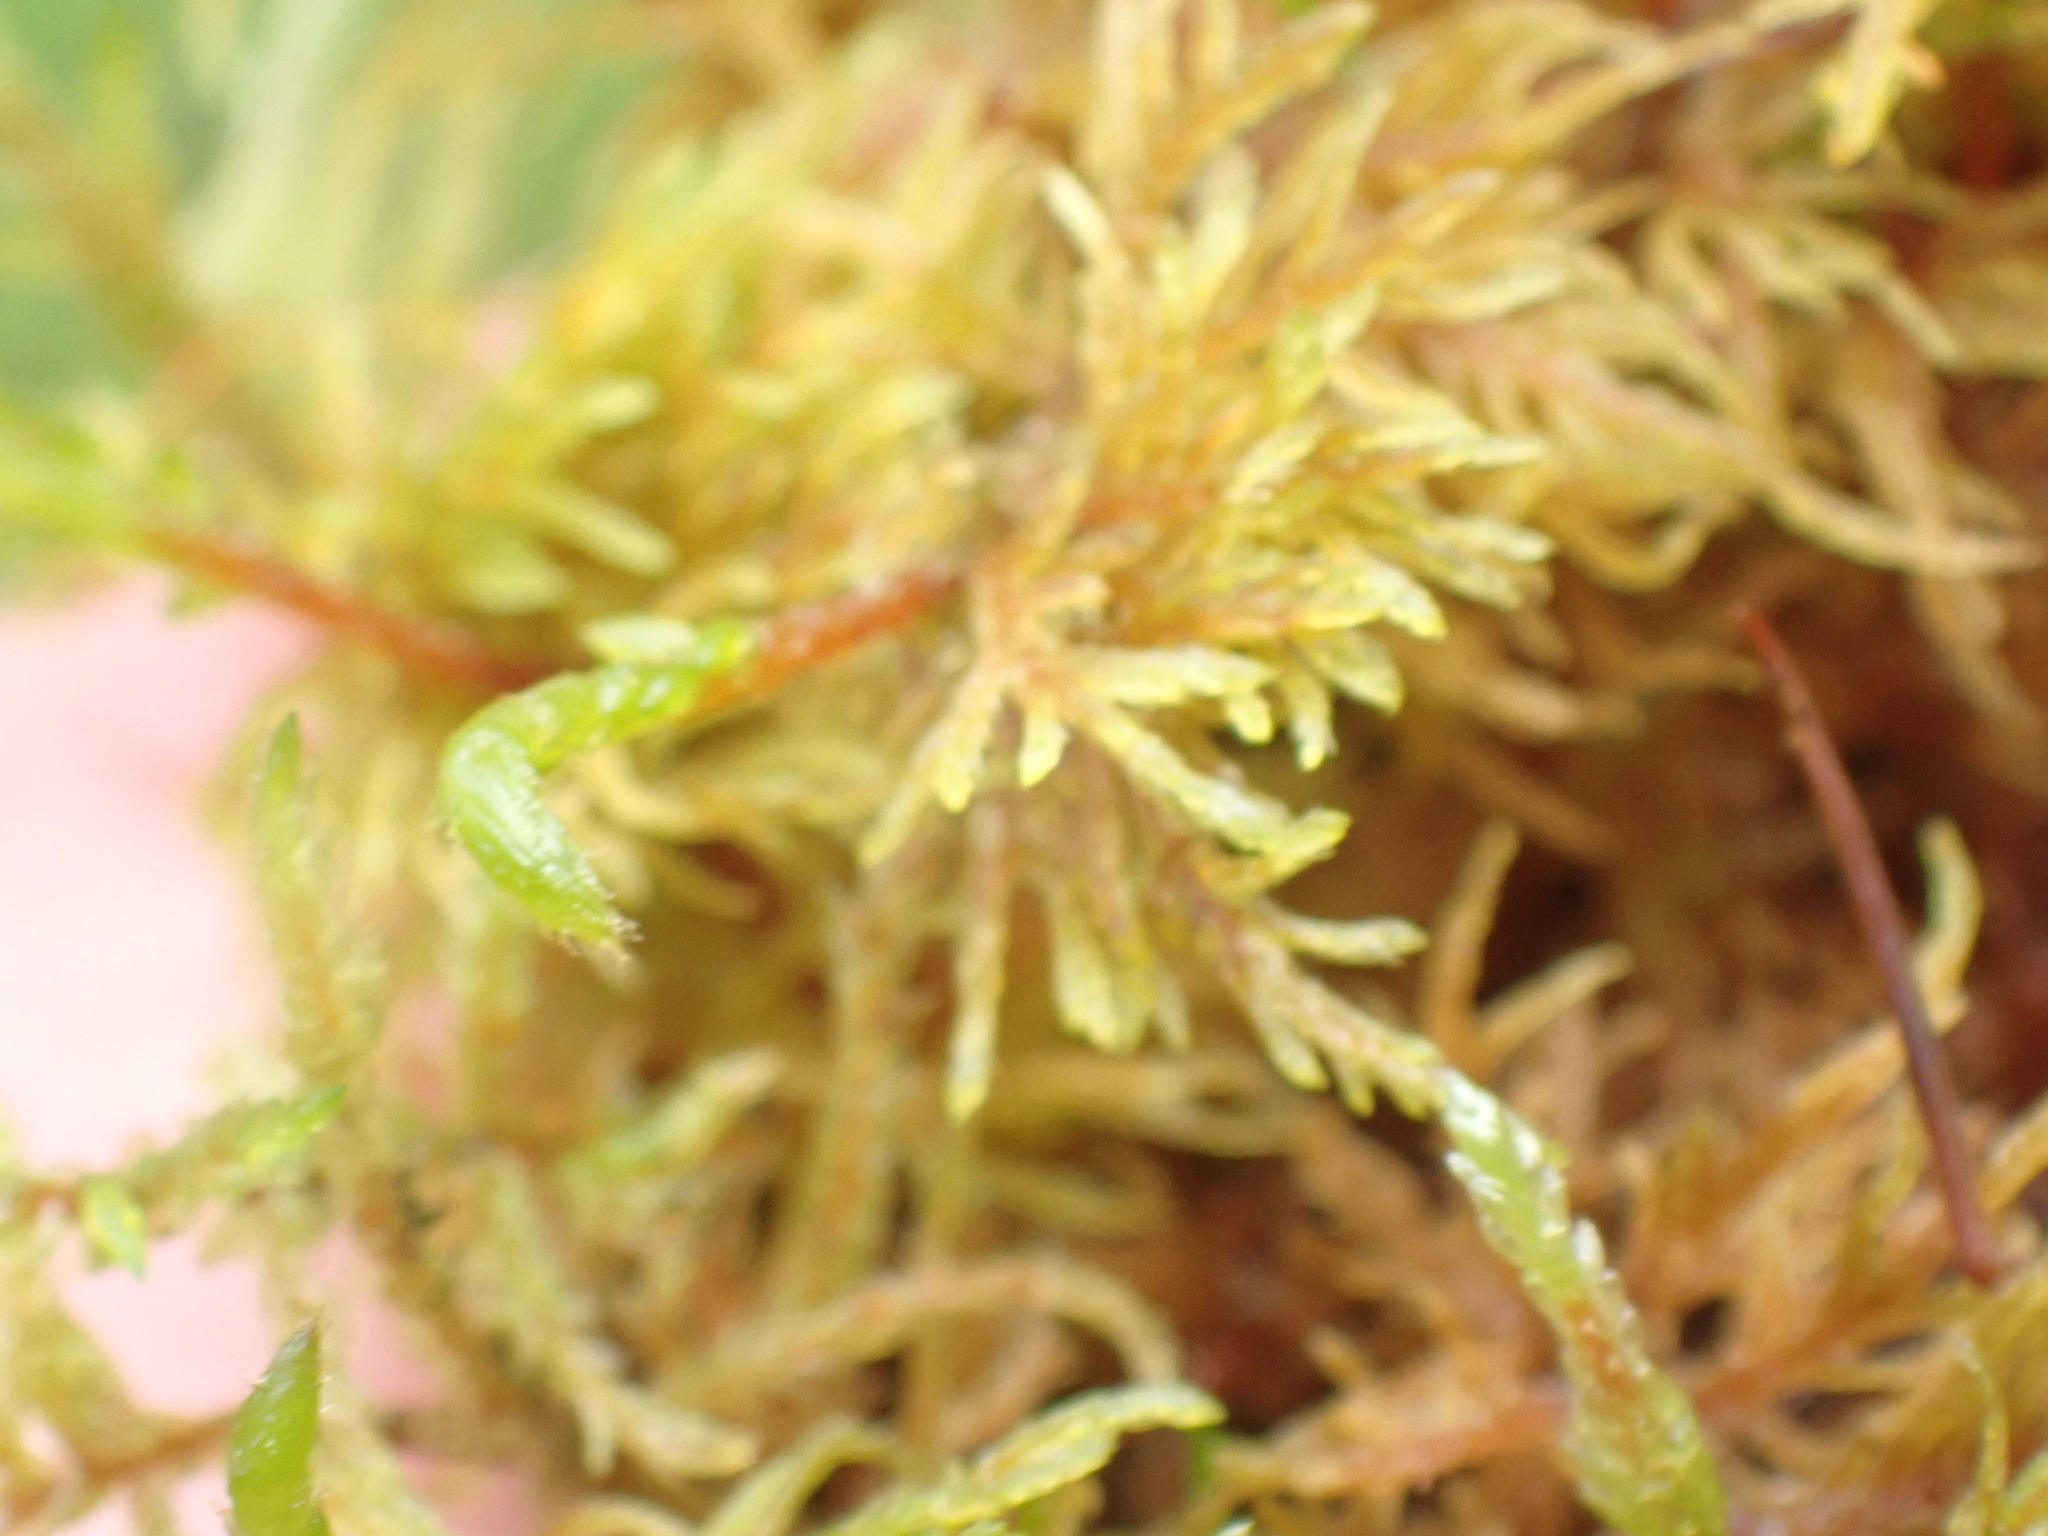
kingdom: Plantae
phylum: Bryophyta
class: Bryopsida
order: Hypnales
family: Hylocomiaceae
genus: Hylocomium
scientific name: Hylocomium splendens
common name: Stairstep moss
